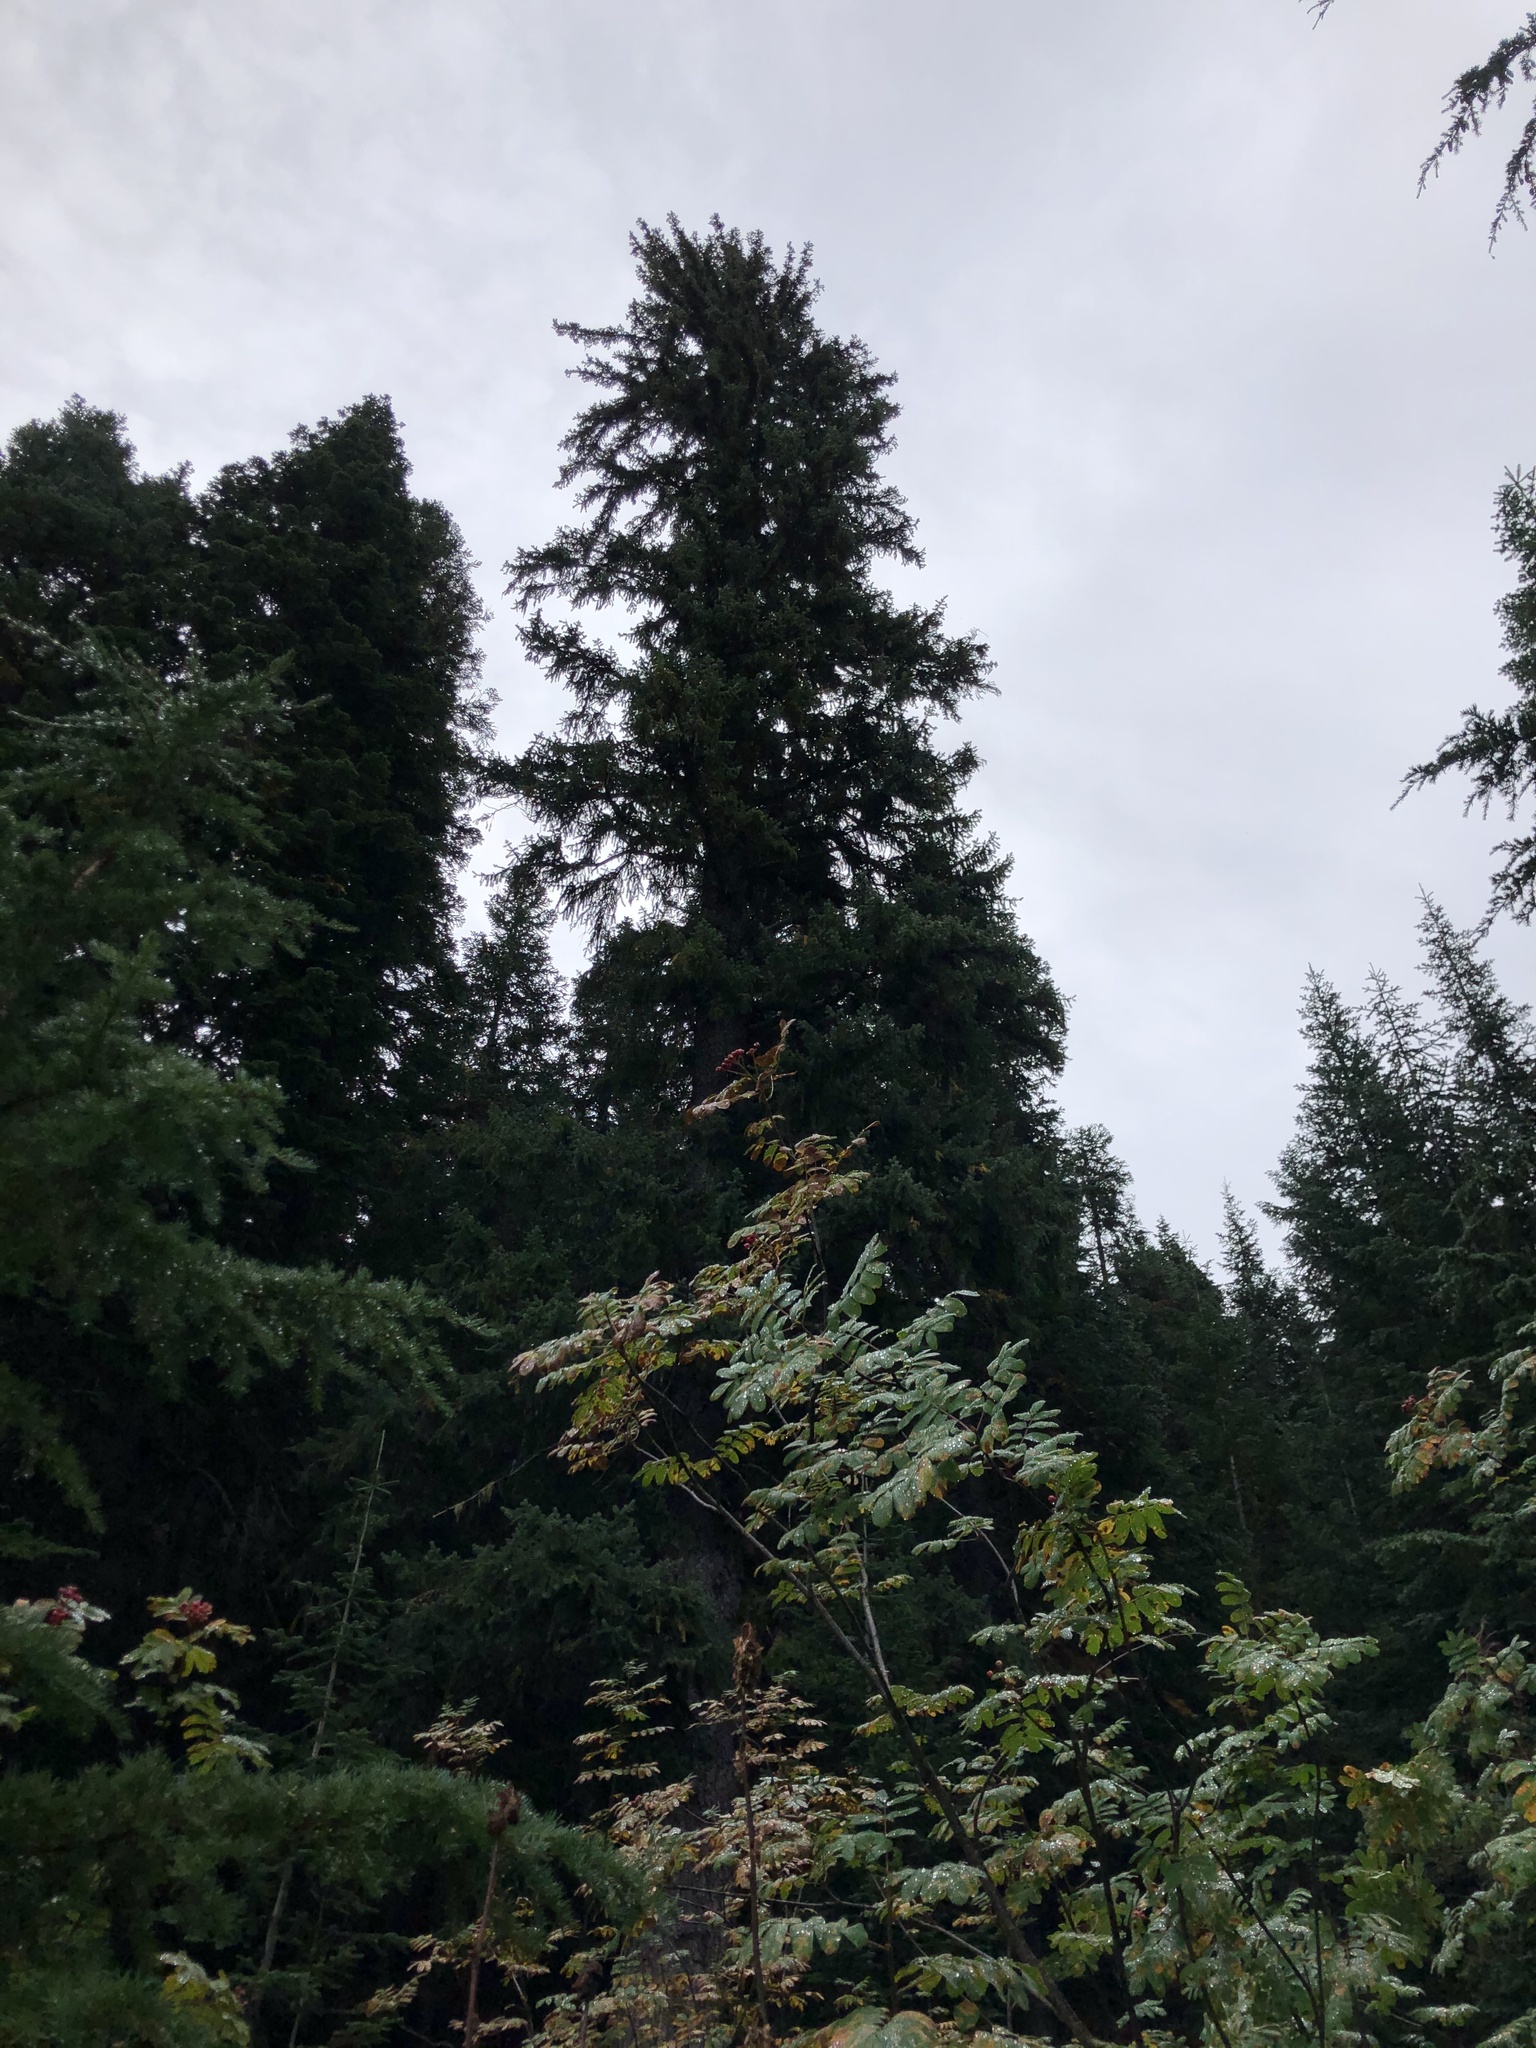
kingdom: Plantae
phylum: Tracheophyta
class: Pinopsida
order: Pinales
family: Pinaceae
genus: Tsuga
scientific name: Tsuga mertensiana
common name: Mountain hemlock
